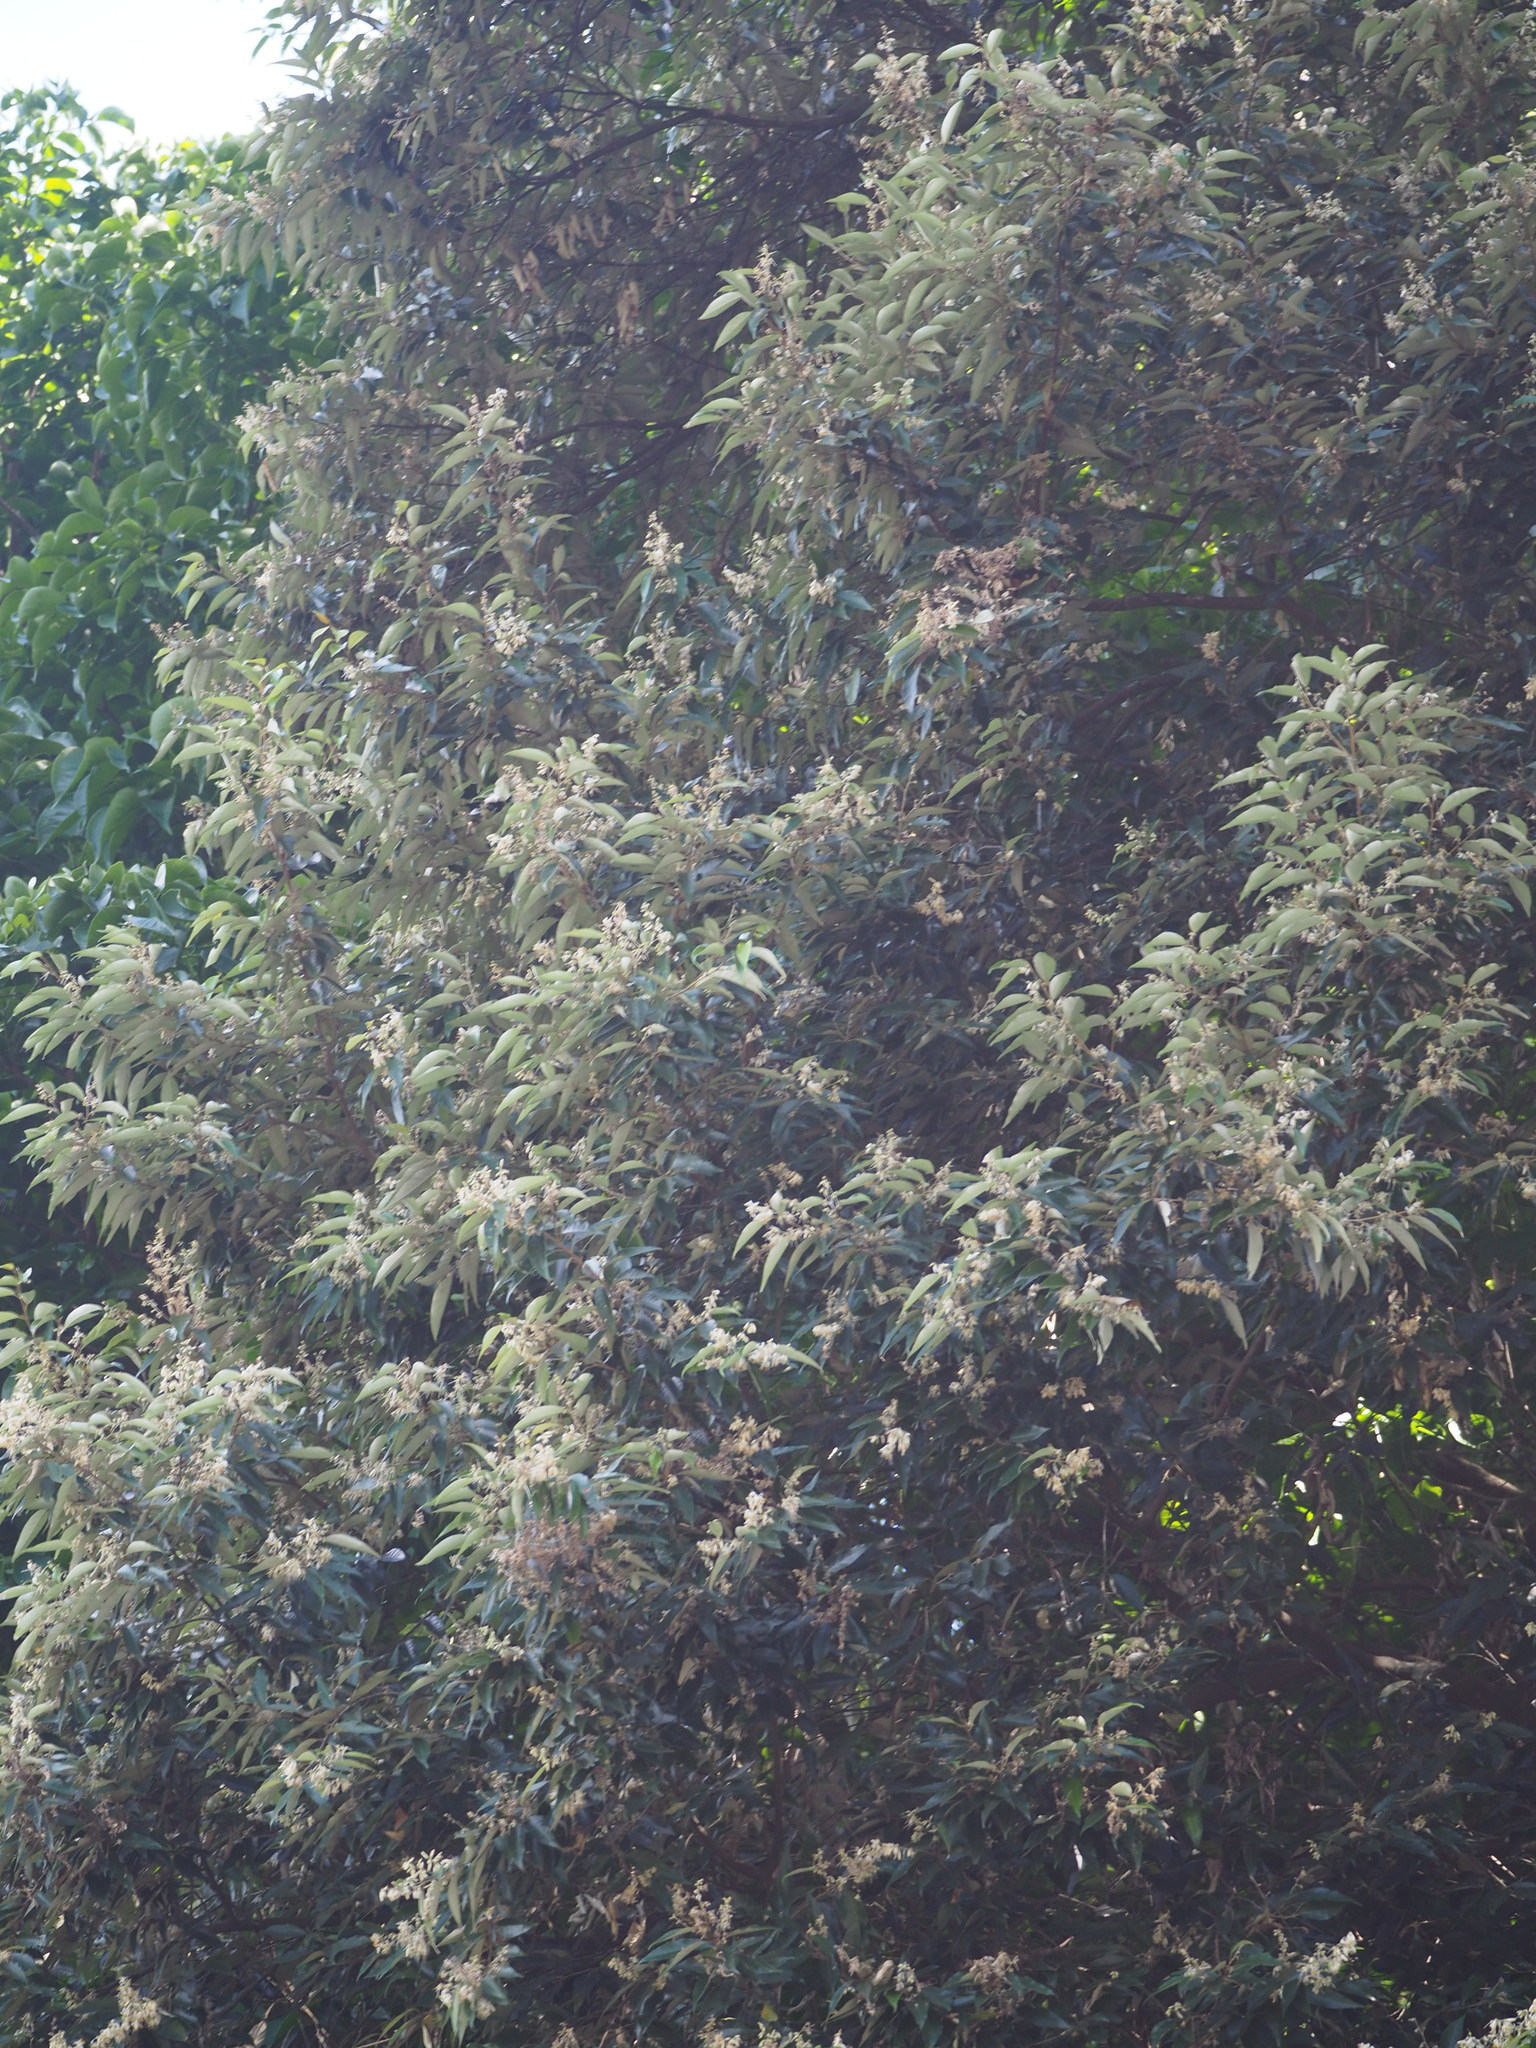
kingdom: Plantae
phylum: Tracheophyta
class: Magnoliopsida
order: Ericales
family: Styracaceae
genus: Styrax
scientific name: Styrax suberifolius
